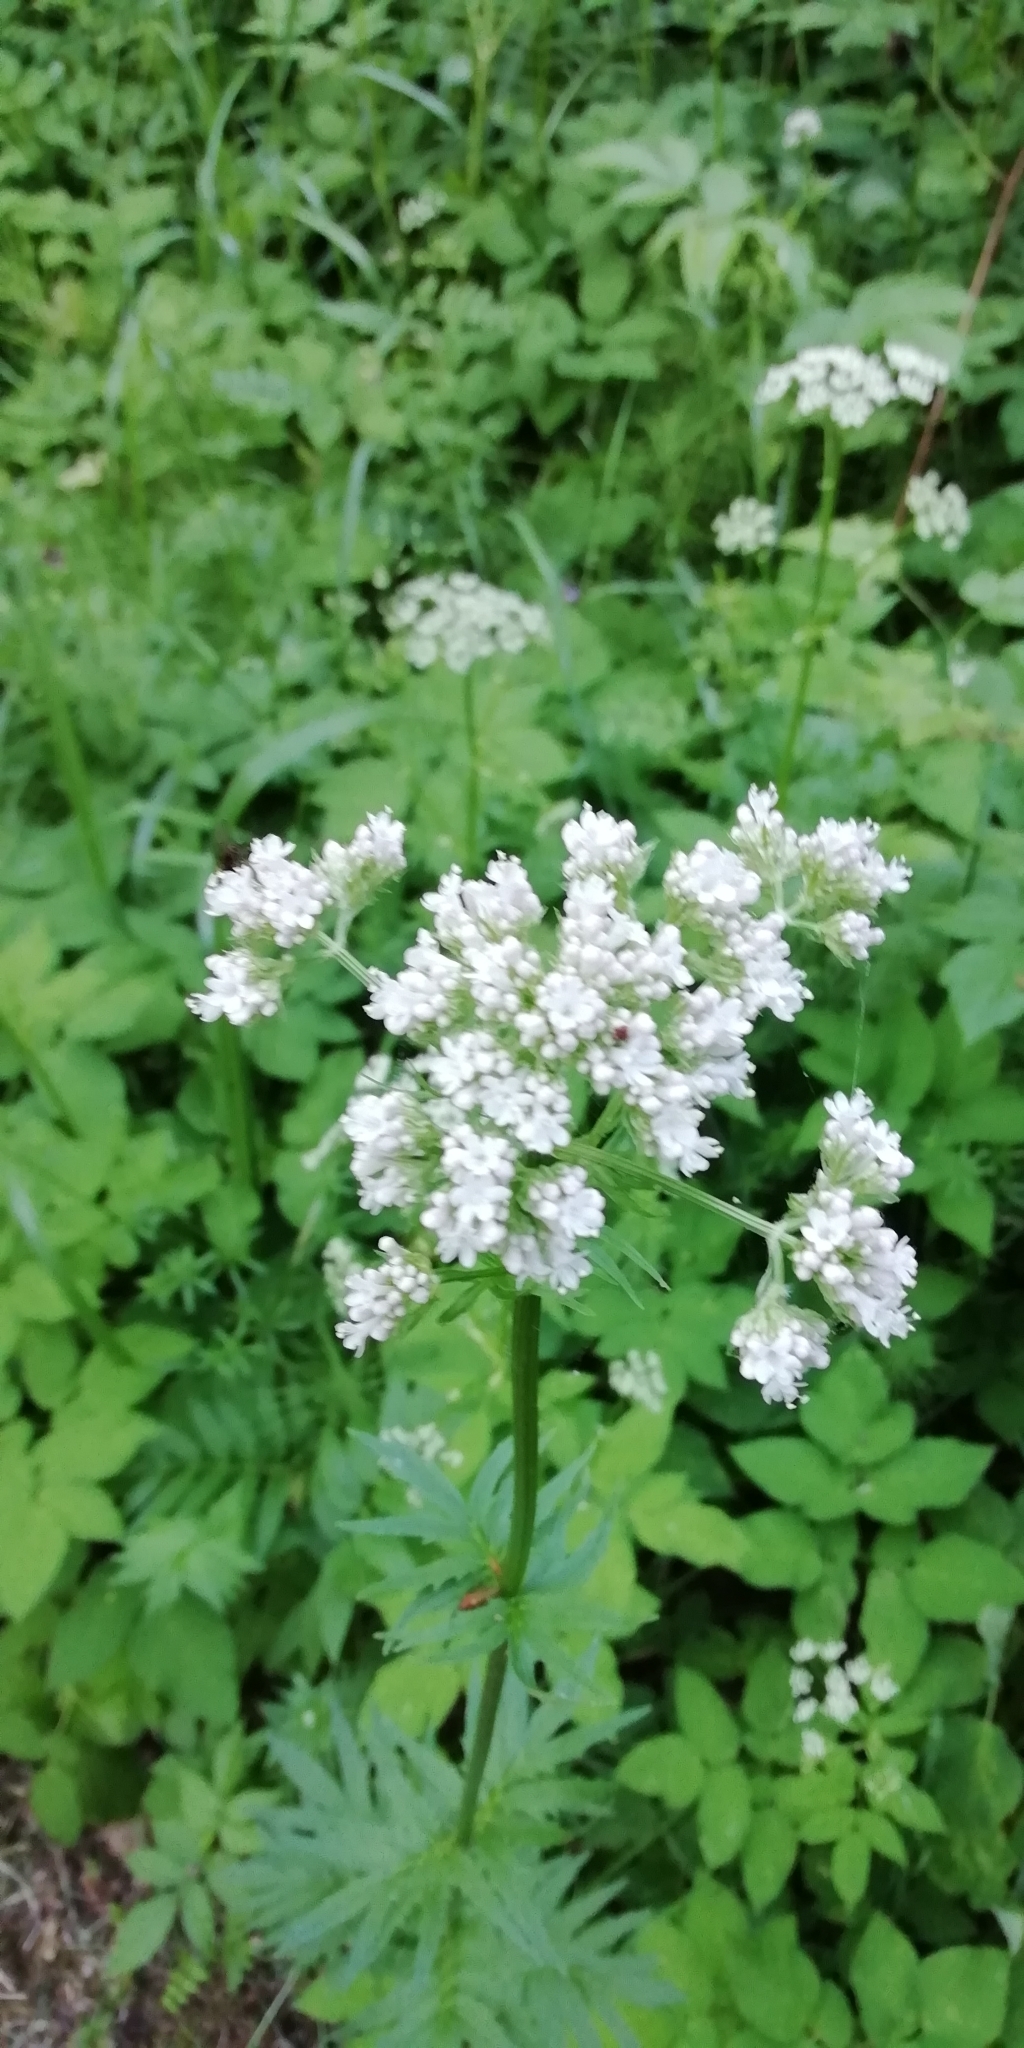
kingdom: Plantae
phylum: Tracheophyta
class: Magnoliopsida
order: Dipsacales
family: Caprifoliaceae
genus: Valeriana
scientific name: Valeriana officinalis
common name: Common valerian
